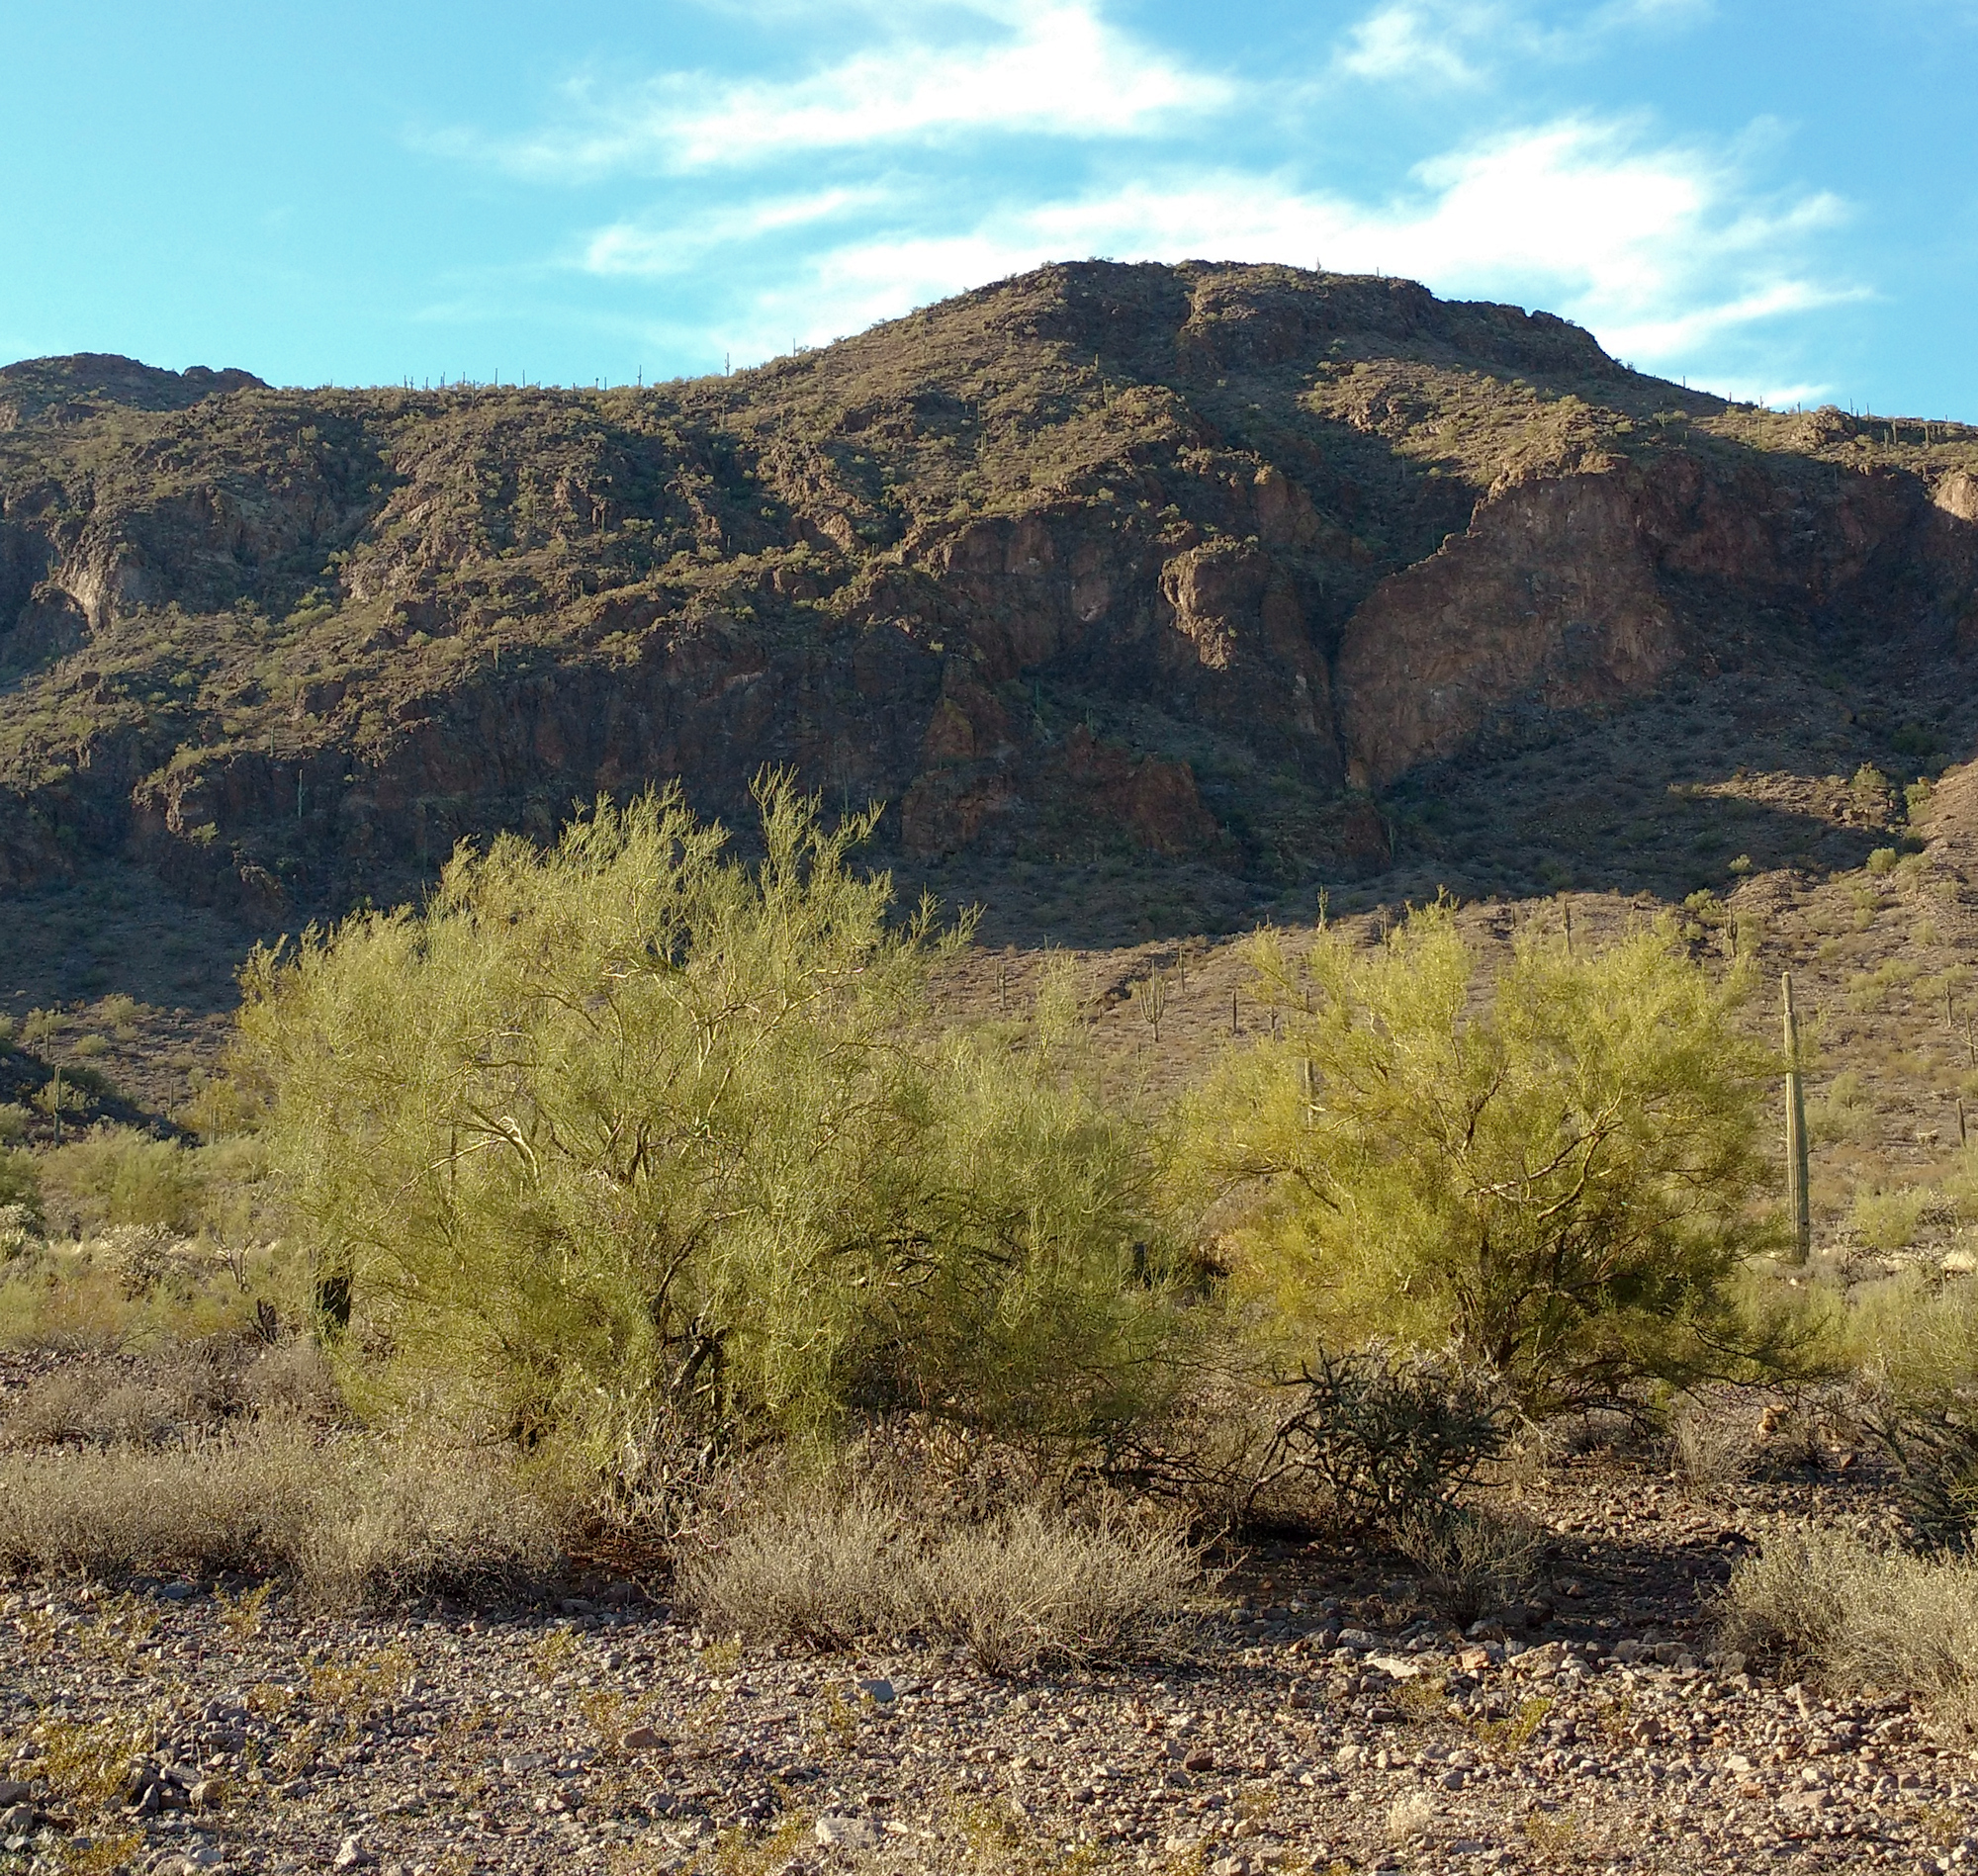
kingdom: Plantae
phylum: Tracheophyta
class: Magnoliopsida
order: Fabales
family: Fabaceae
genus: Parkinsonia
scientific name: Parkinsonia microphylla
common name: Yellow paloverde
